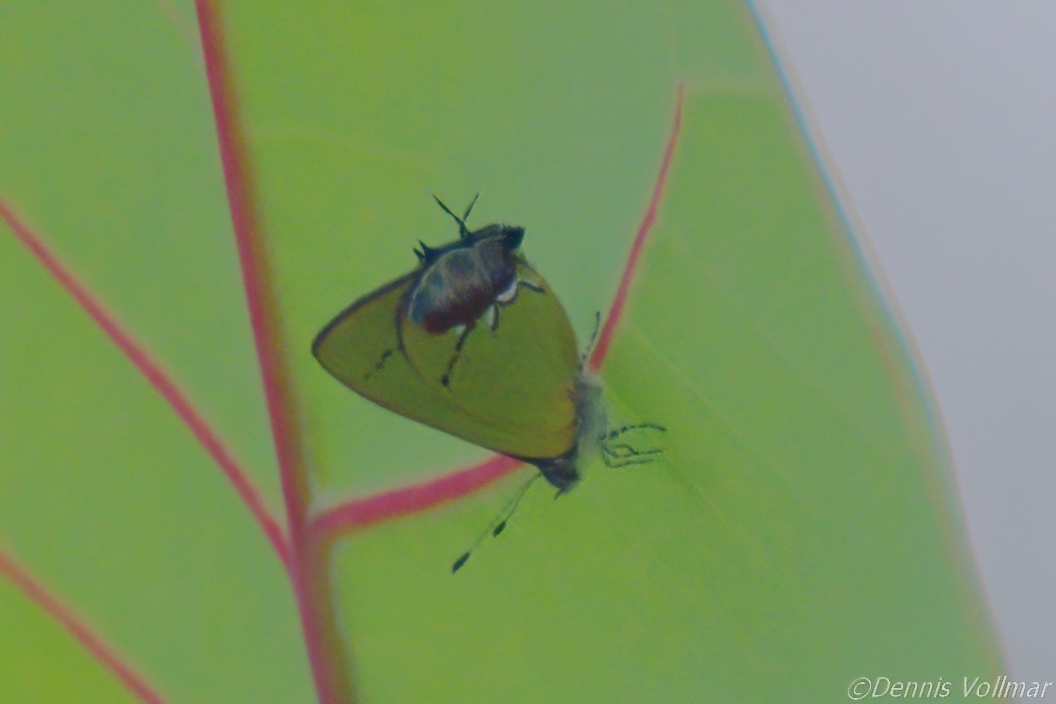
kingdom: Animalia
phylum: Arthropoda
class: Insecta
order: Lepidoptera
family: Lycaenidae
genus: Thecla
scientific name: Thecla maesites
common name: Verde azul hairstreak
